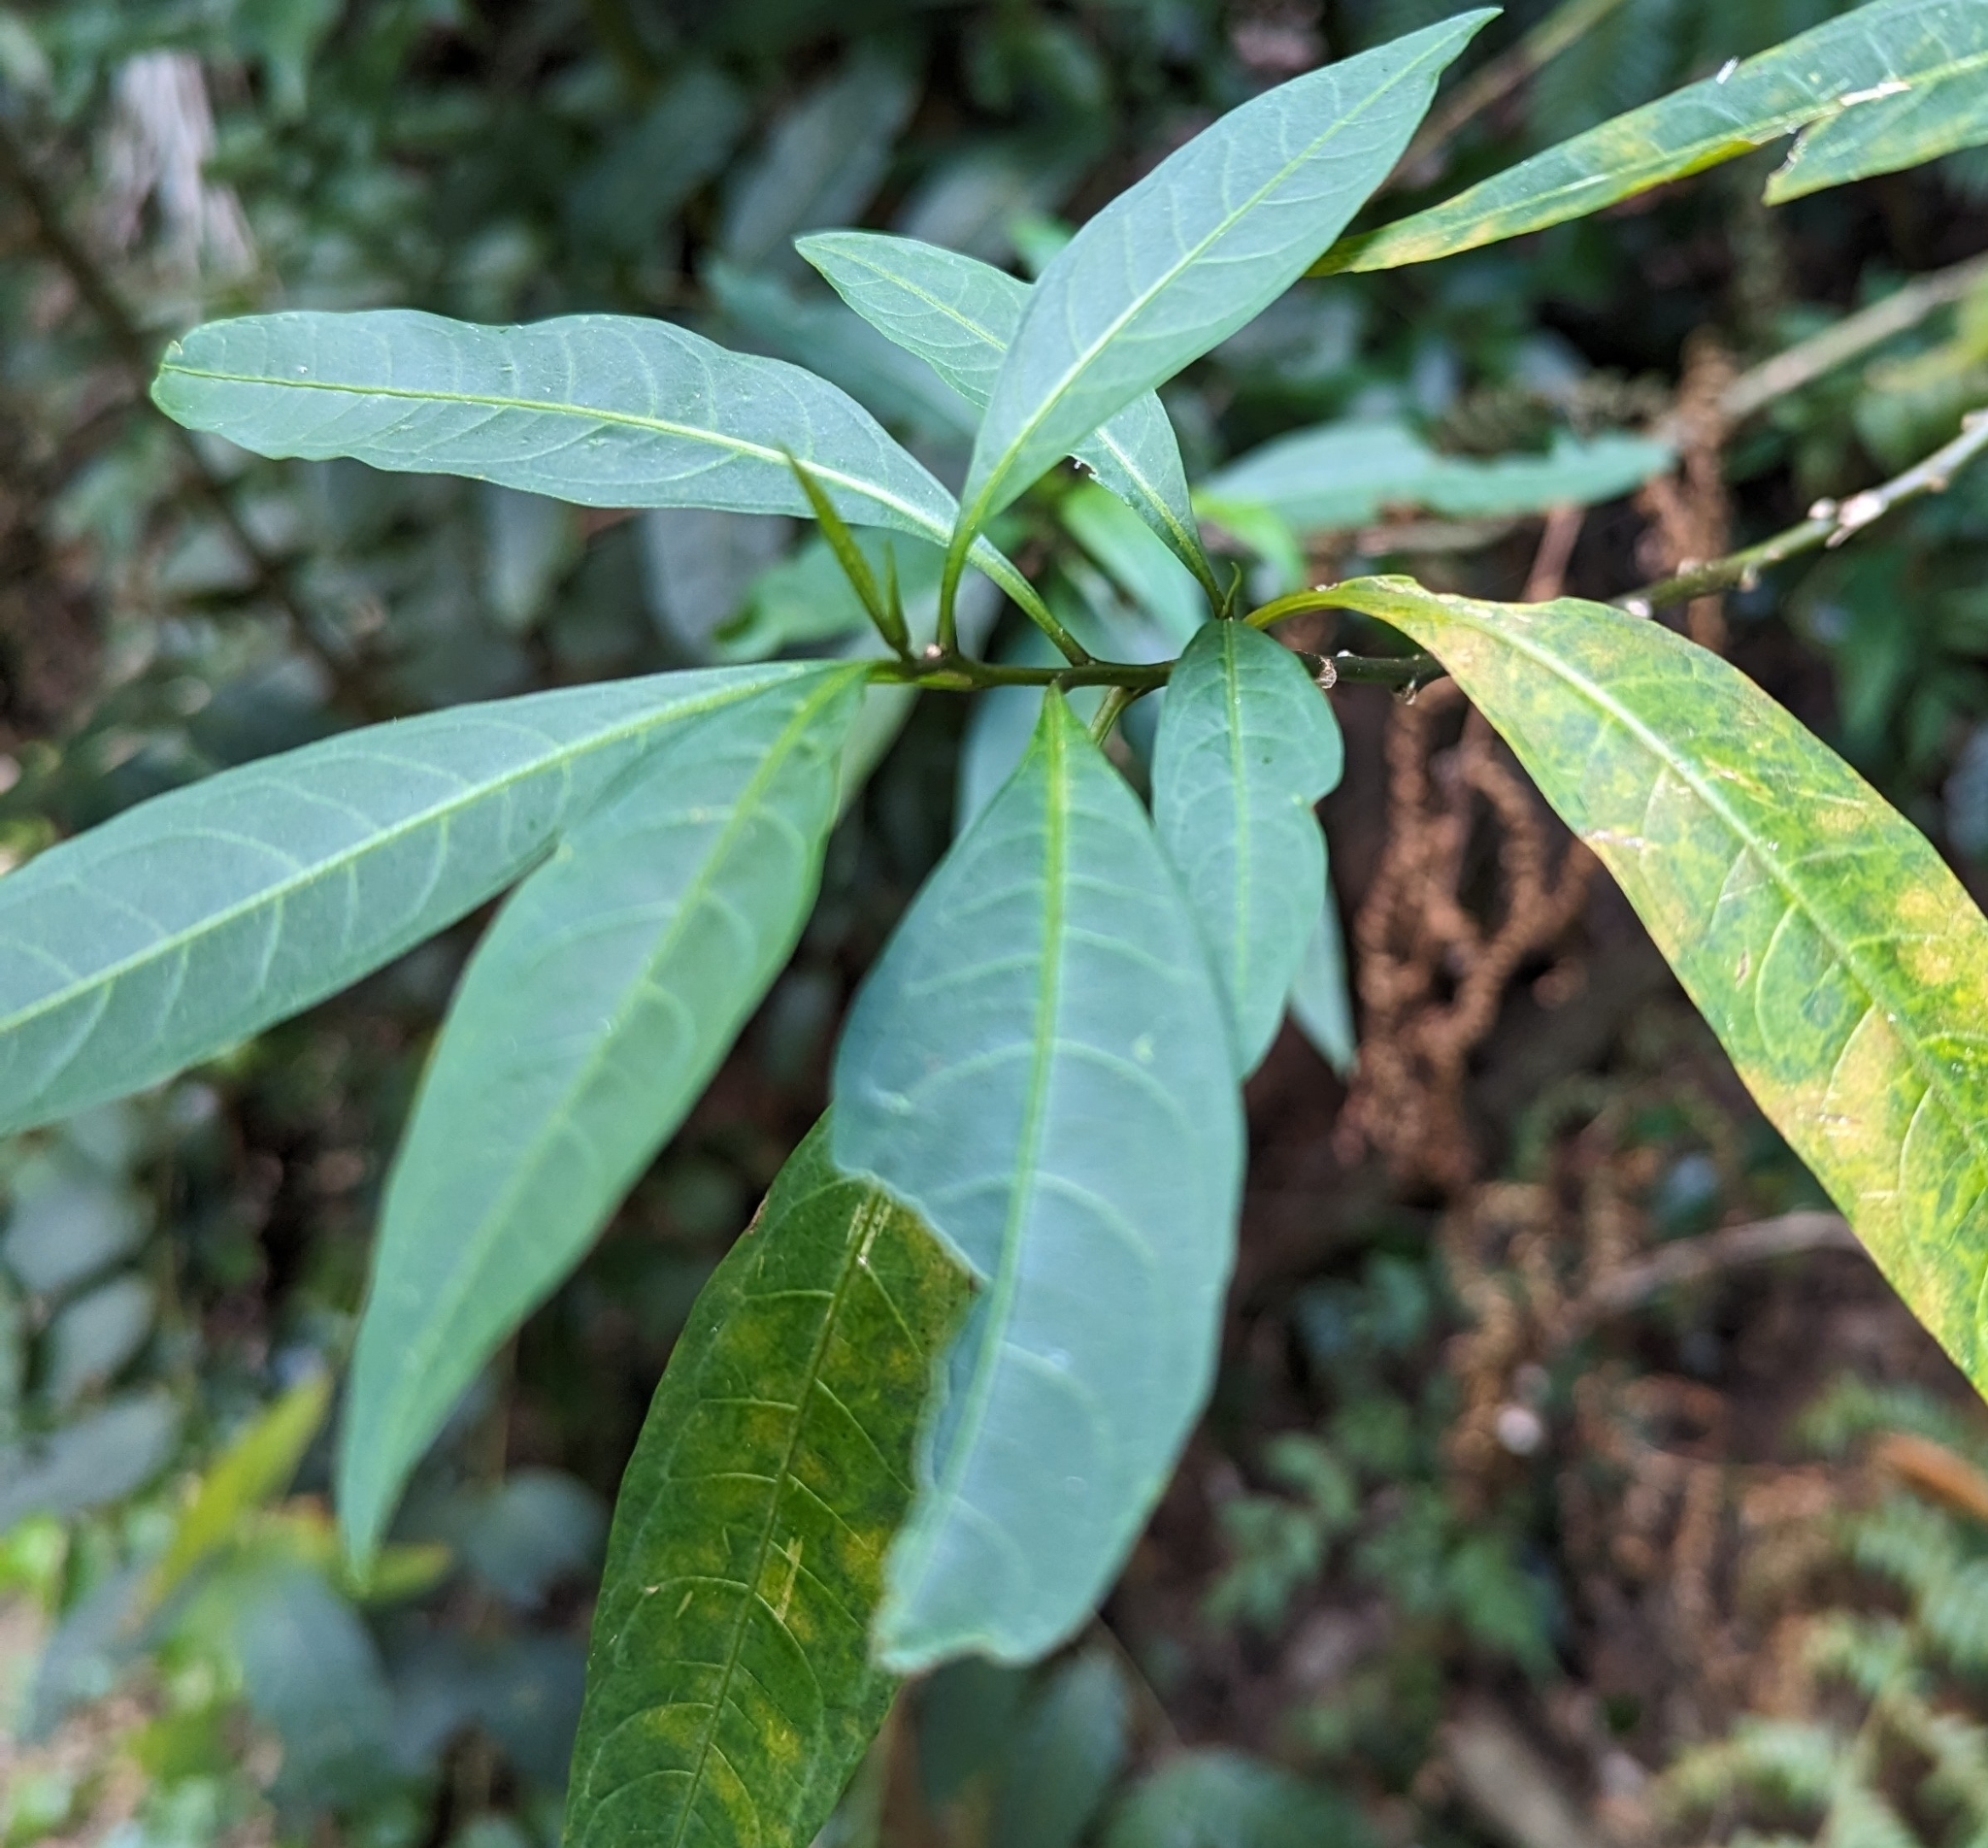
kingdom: Plantae
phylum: Tracheophyta
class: Magnoliopsida
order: Solanales
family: Solanaceae
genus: Solanum
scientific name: Solanum aviculare
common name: New zealand nightshade
